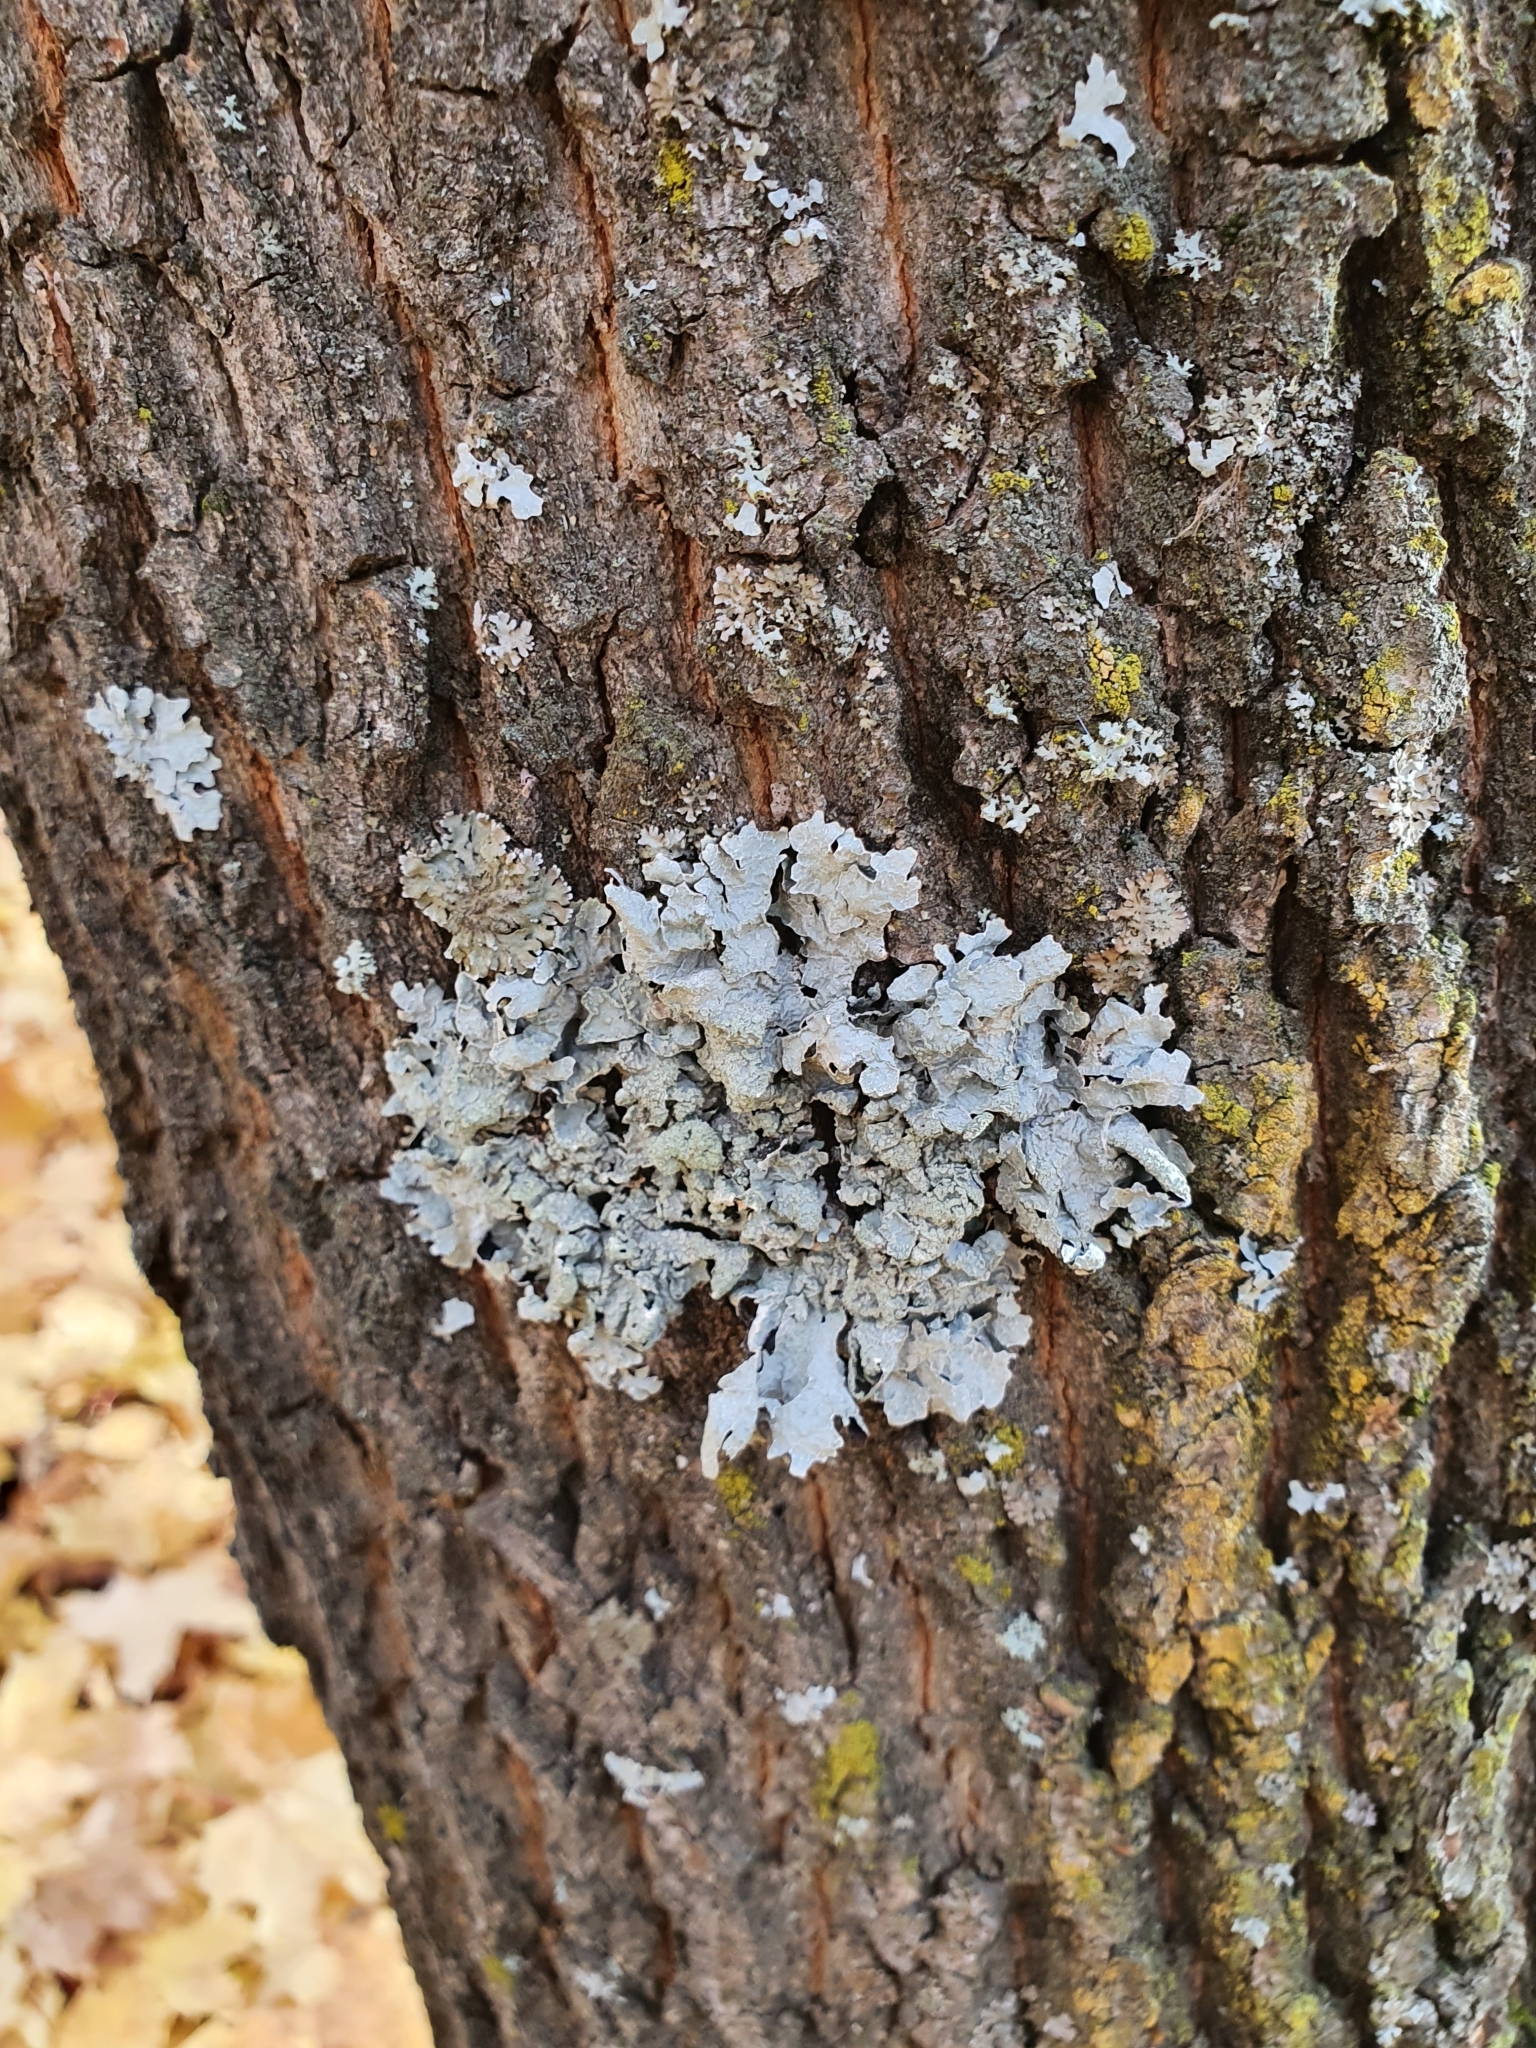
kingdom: Fungi
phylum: Ascomycota
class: Lecanoromycetes
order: Lecanorales
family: Parmeliaceae
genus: Parmelia
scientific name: Parmelia sulcata
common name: Netted shield lichen
